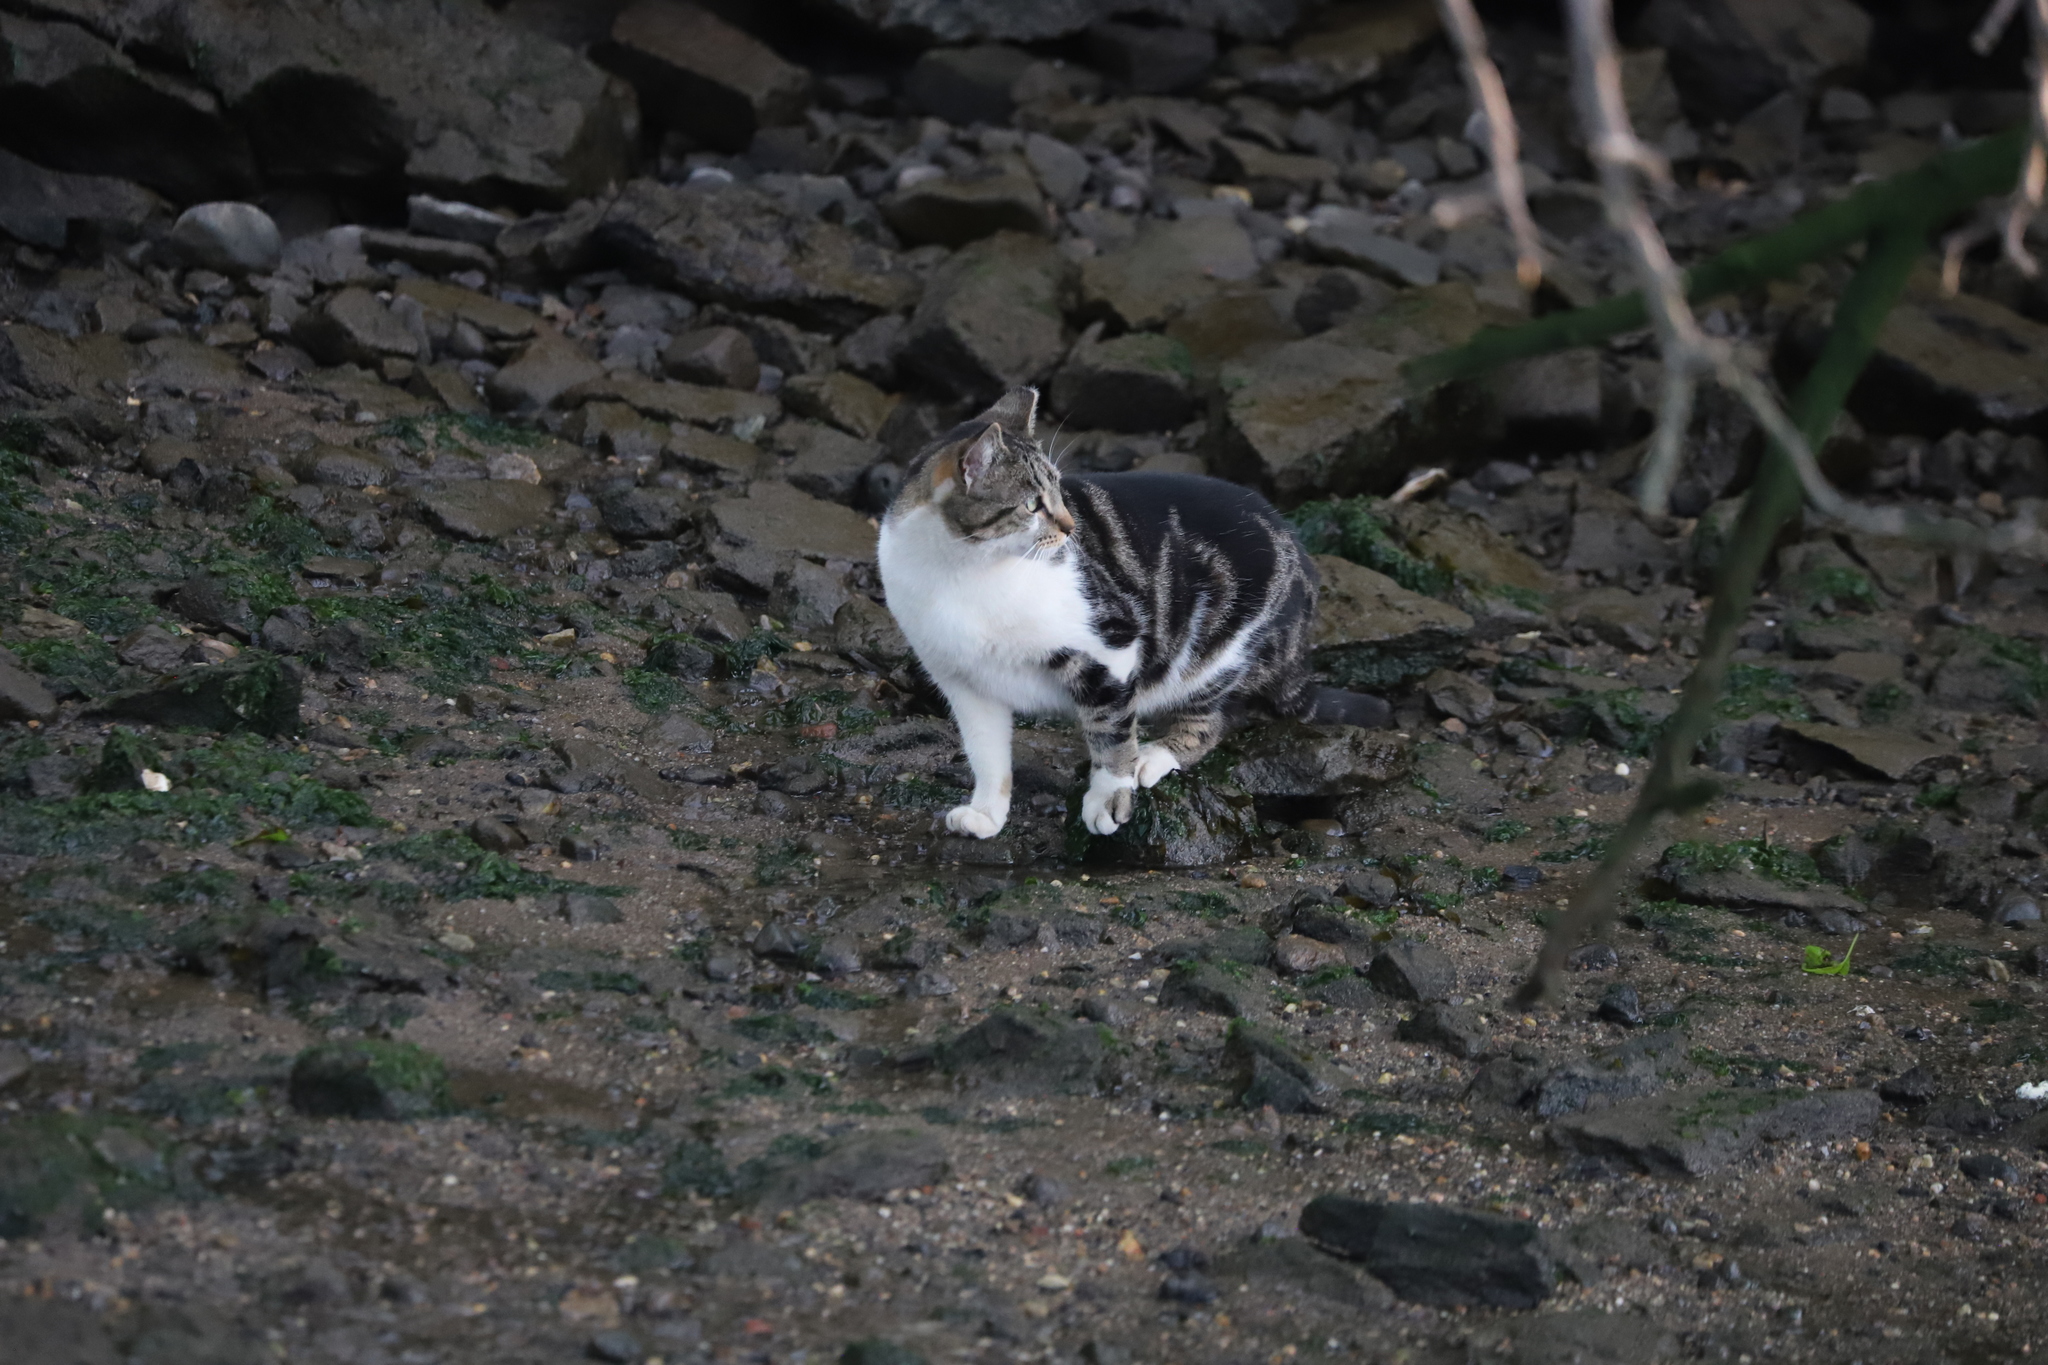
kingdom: Animalia
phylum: Chordata
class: Mammalia
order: Carnivora
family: Felidae
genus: Felis
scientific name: Felis catus
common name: Domestic cat
